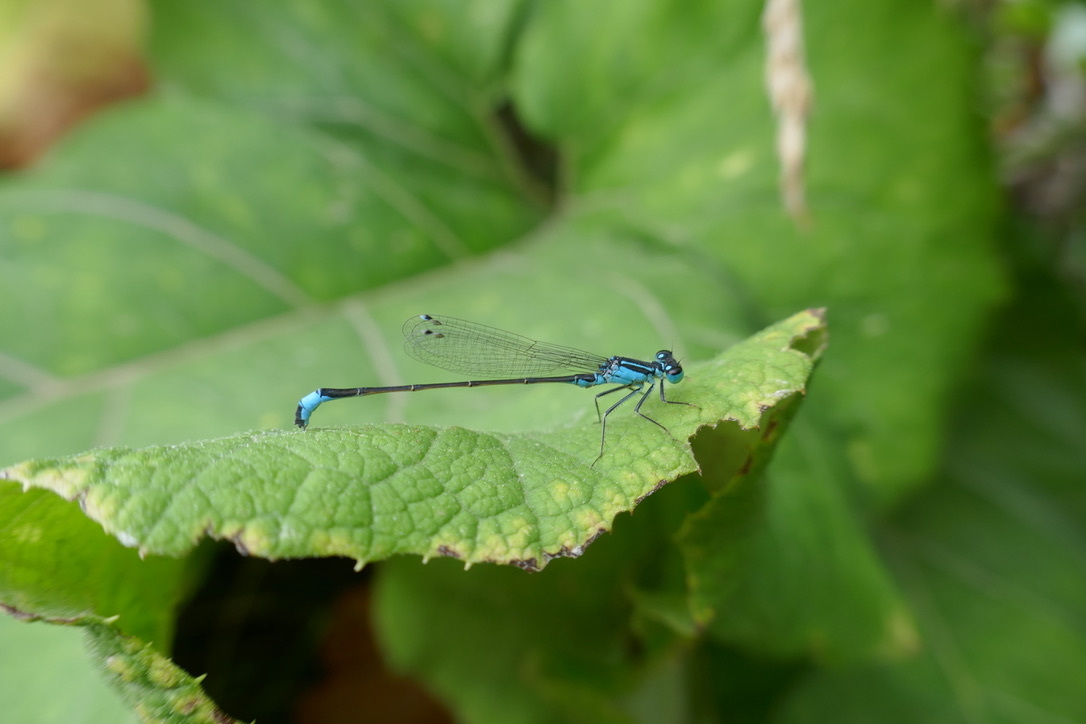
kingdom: Animalia
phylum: Arthropoda
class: Insecta
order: Odonata
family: Coenagrionidae
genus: Ischnura
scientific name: Ischnura elegans
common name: Blue-tailed damselfly
